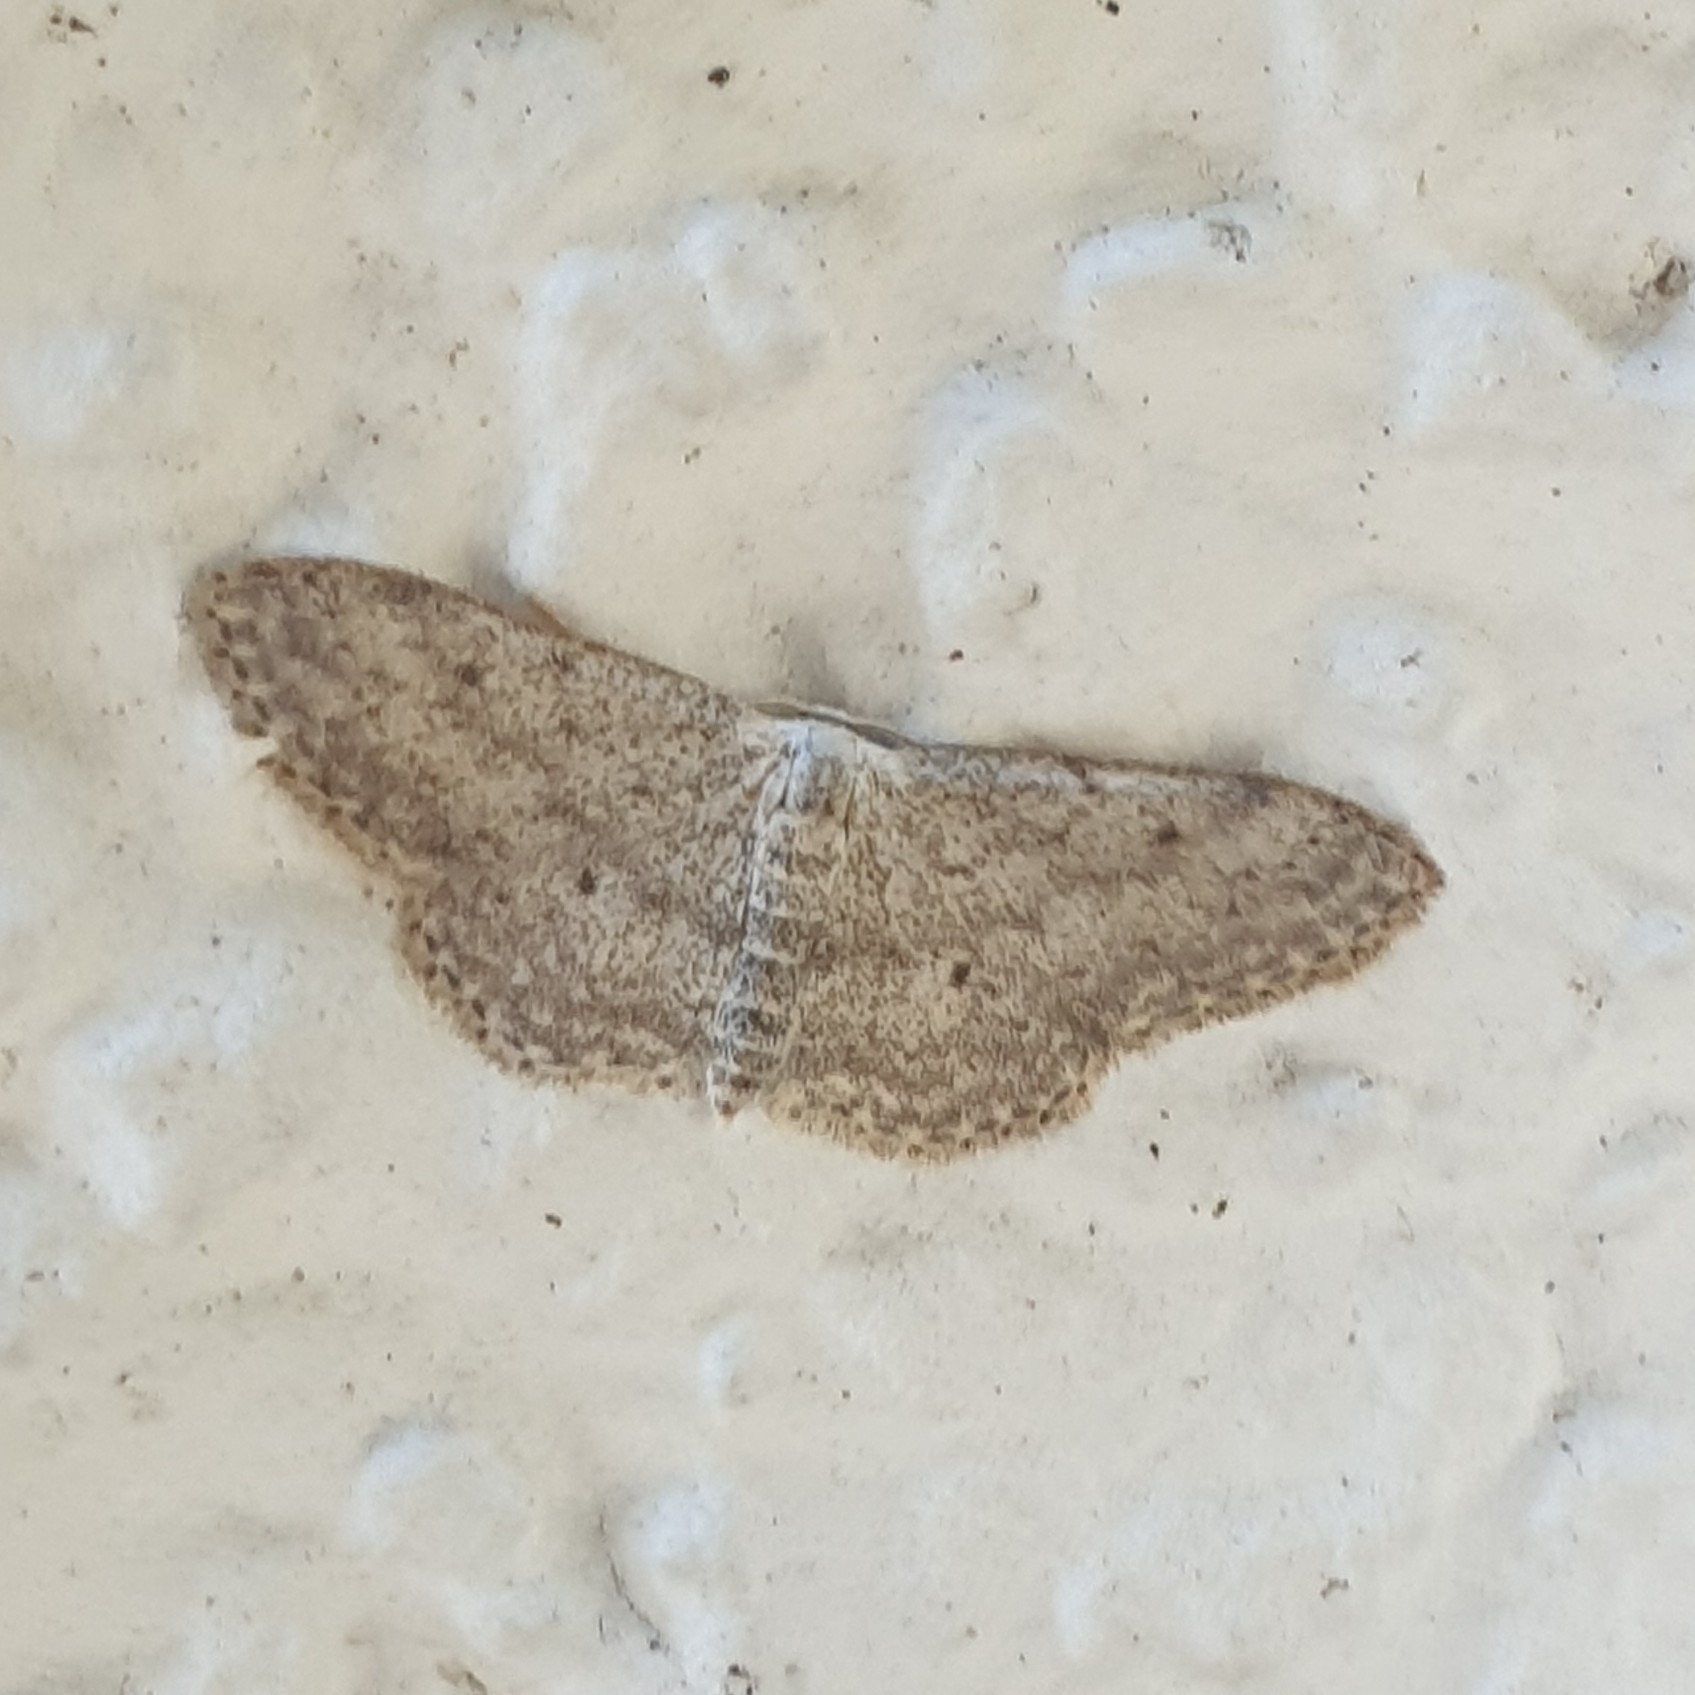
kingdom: Animalia
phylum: Arthropoda
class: Insecta
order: Lepidoptera
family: Geometridae
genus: Idaea
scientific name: Idaea seriata
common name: Small dusty wave
